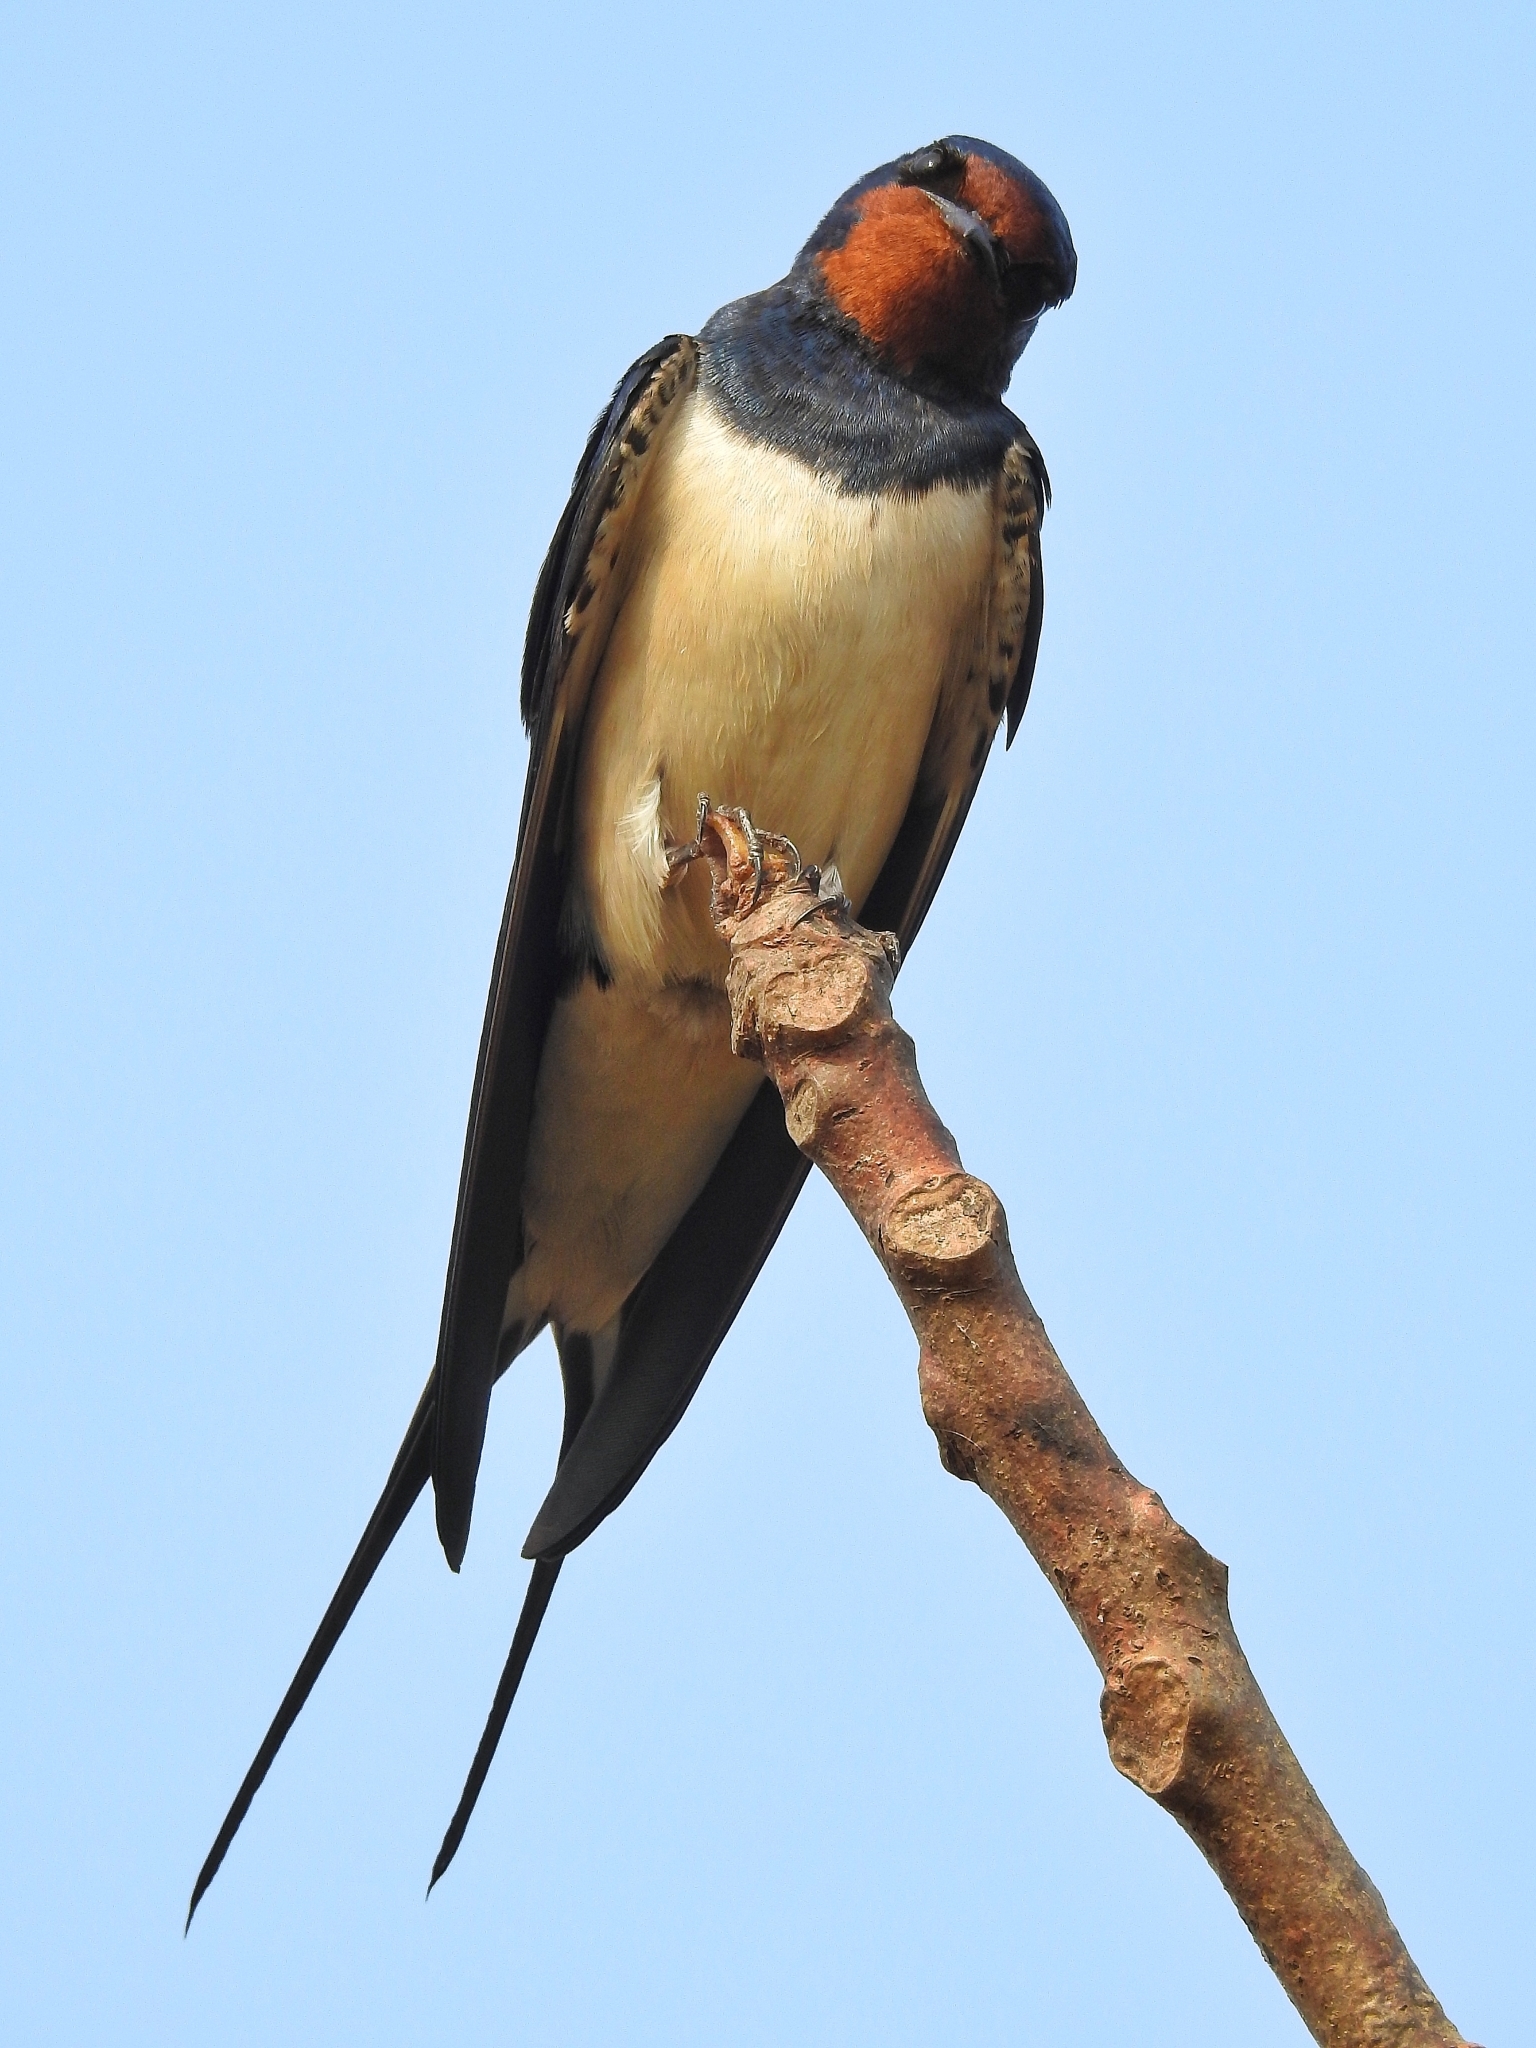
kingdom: Animalia
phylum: Chordata
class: Aves
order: Passeriformes
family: Hirundinidae
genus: Hirundo
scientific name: Hirundo rustica
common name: Barn swallow
